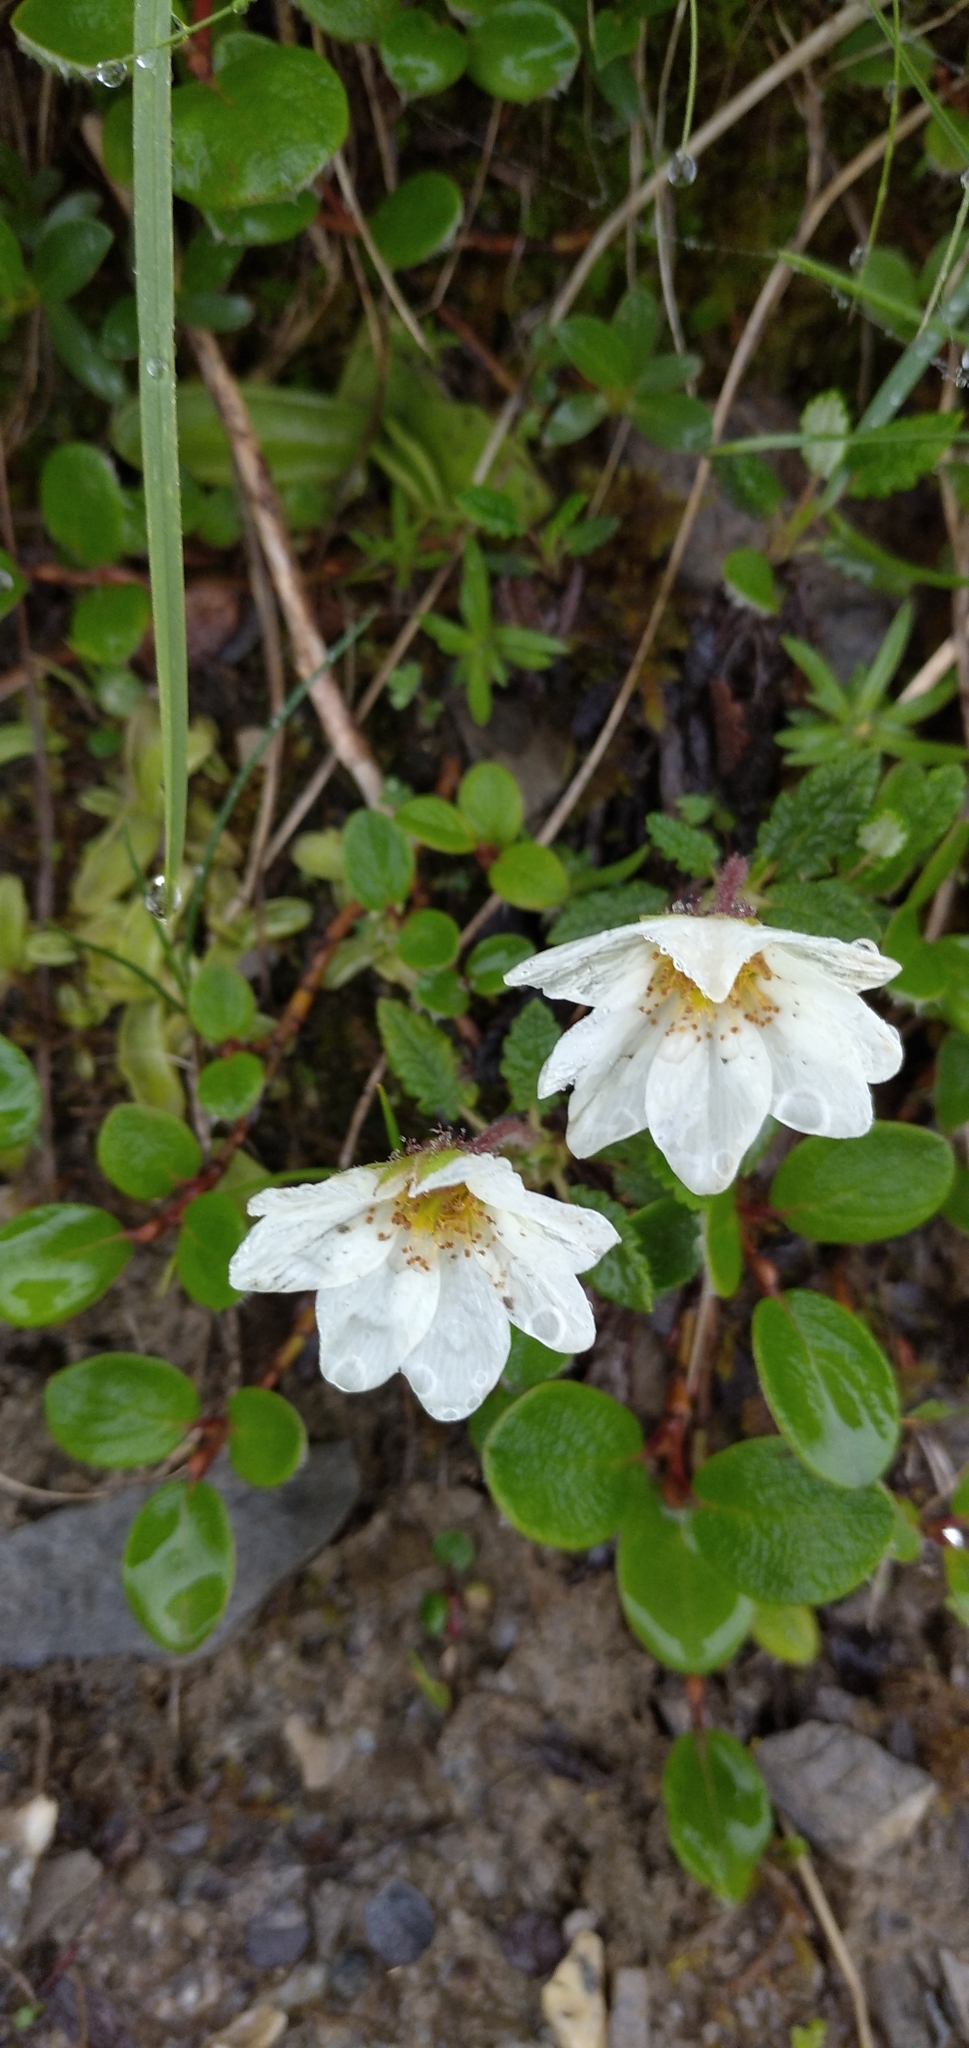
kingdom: Plantae
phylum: Tracheophyta
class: Magnoliopsida
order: Rosales
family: Rosaceae
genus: Dryas
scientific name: Dryas octopetala
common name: Eight-petal mountain-avens
